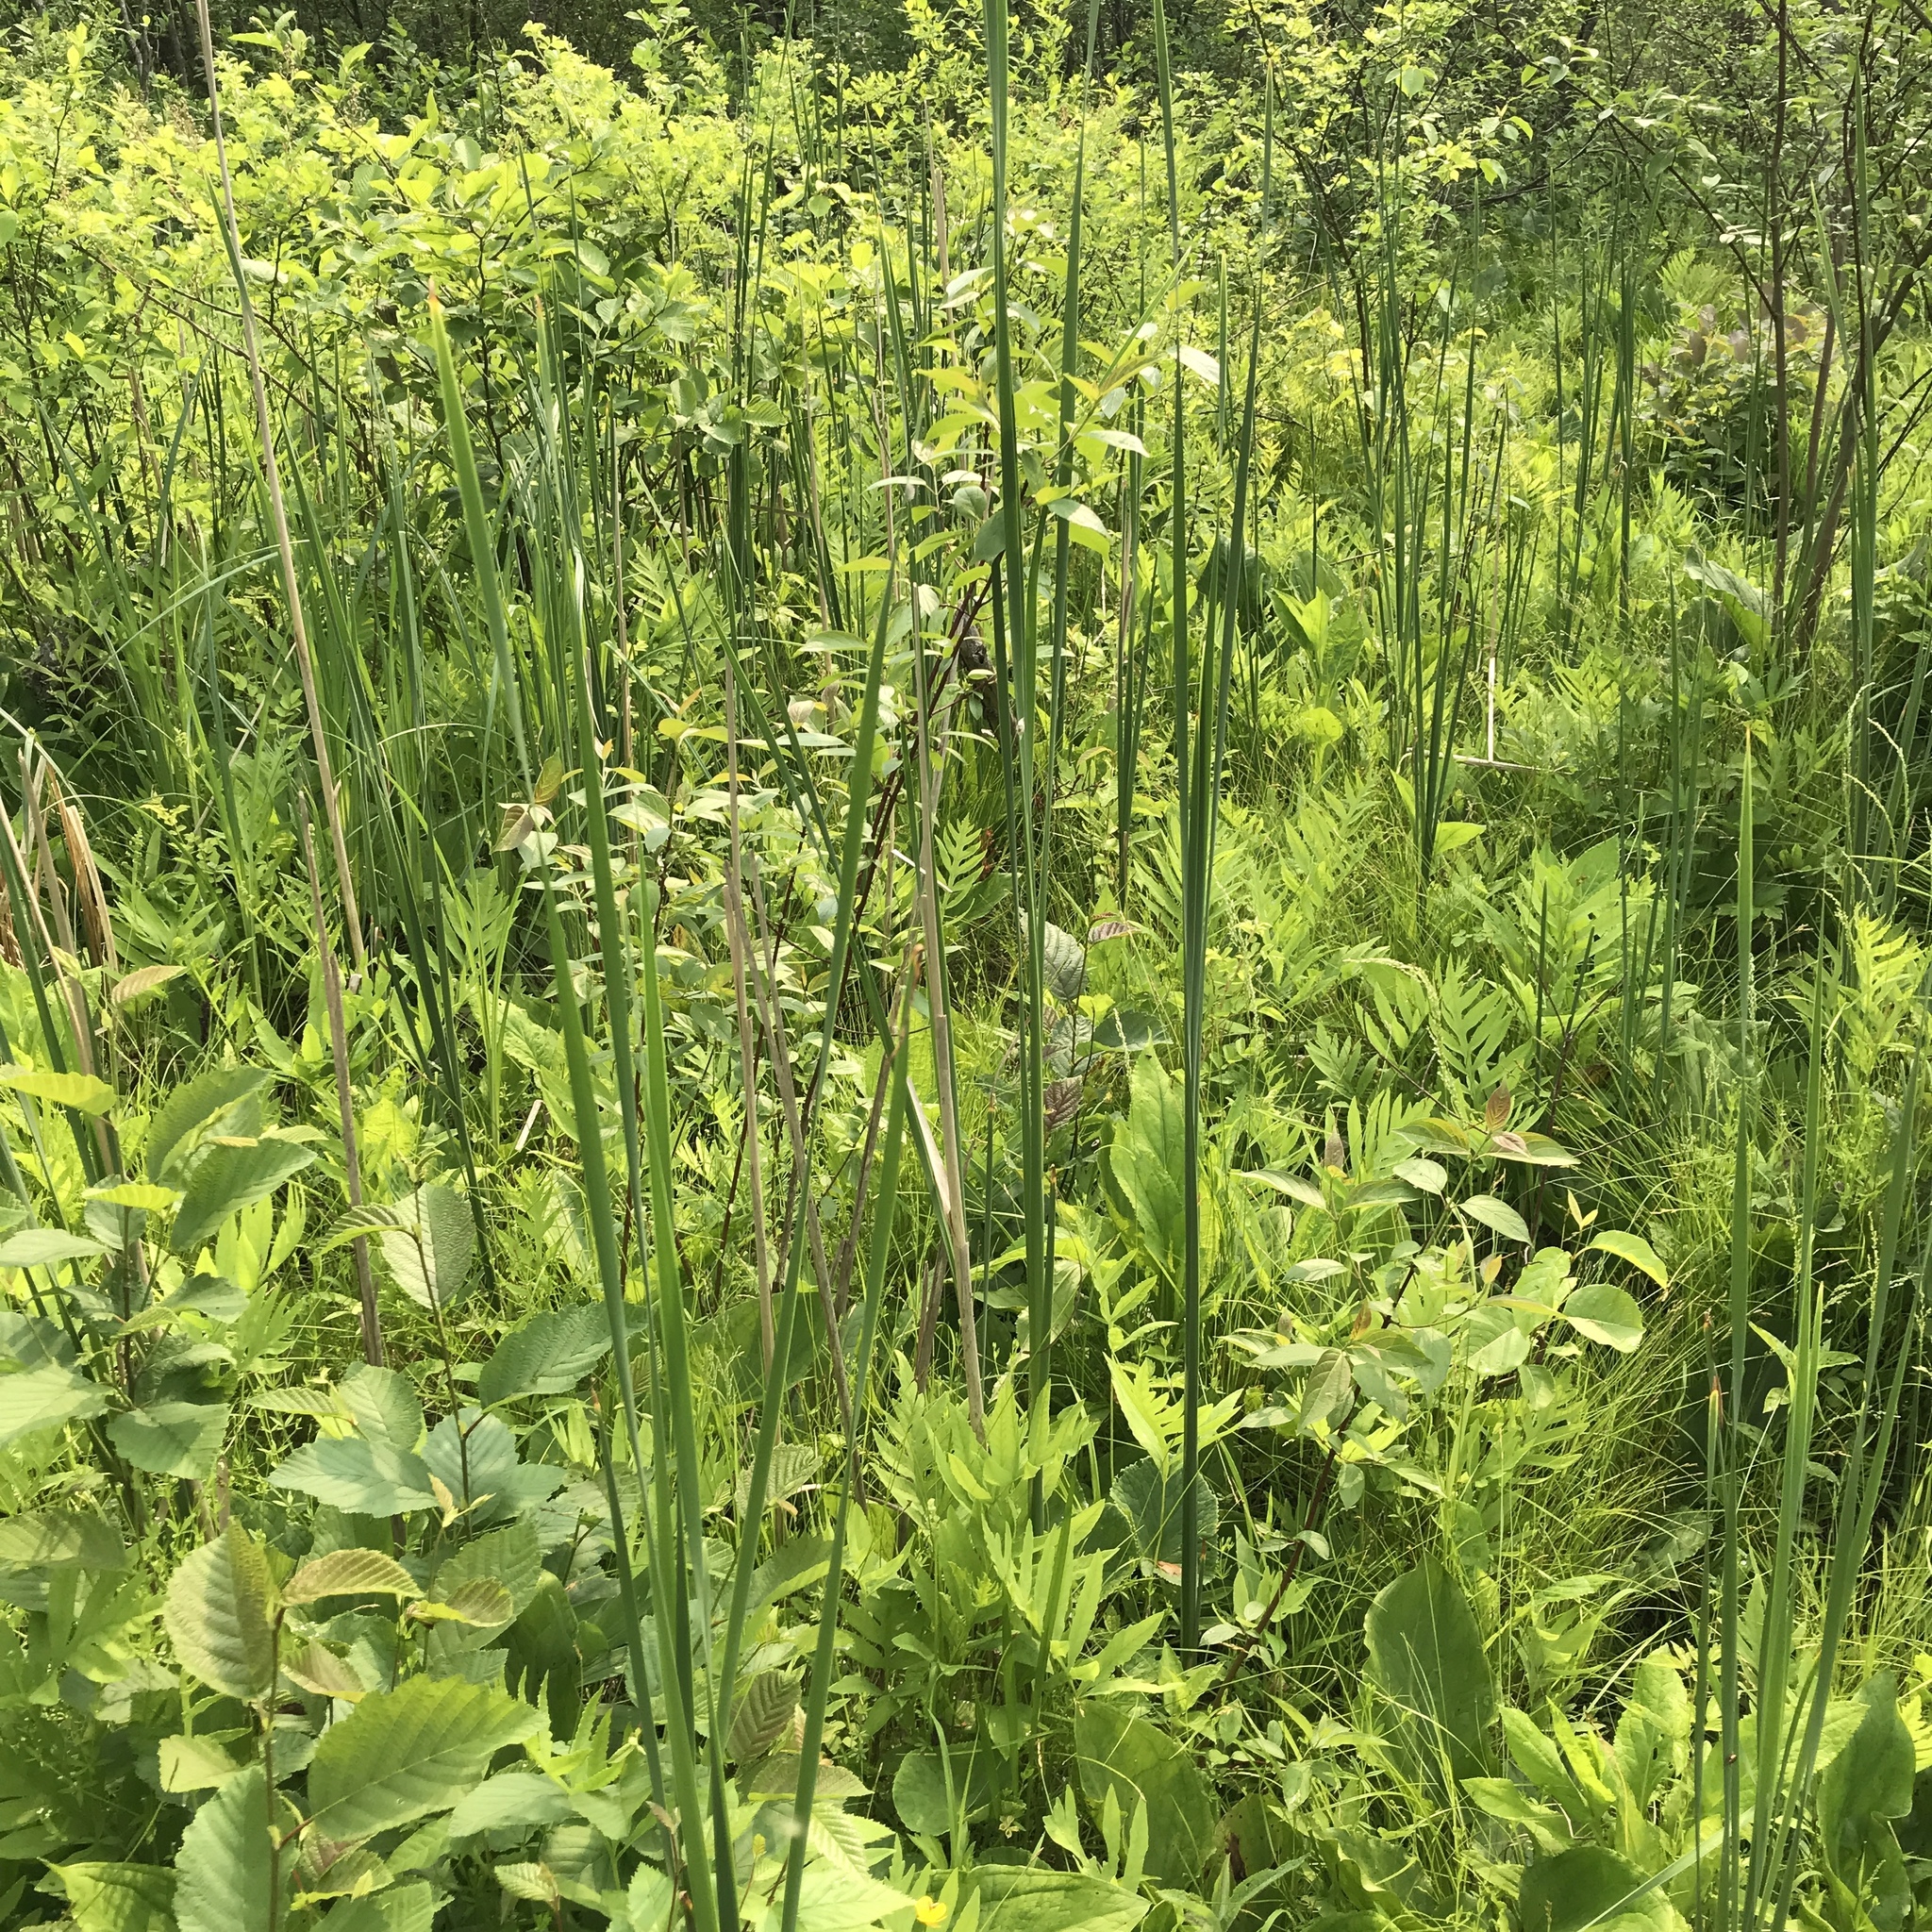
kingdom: Plantae
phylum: Tracheophyta
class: Liliopsida
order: Poales
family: Typhaceae
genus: Typha
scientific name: Typha angustifolia
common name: Lesser bulrush
